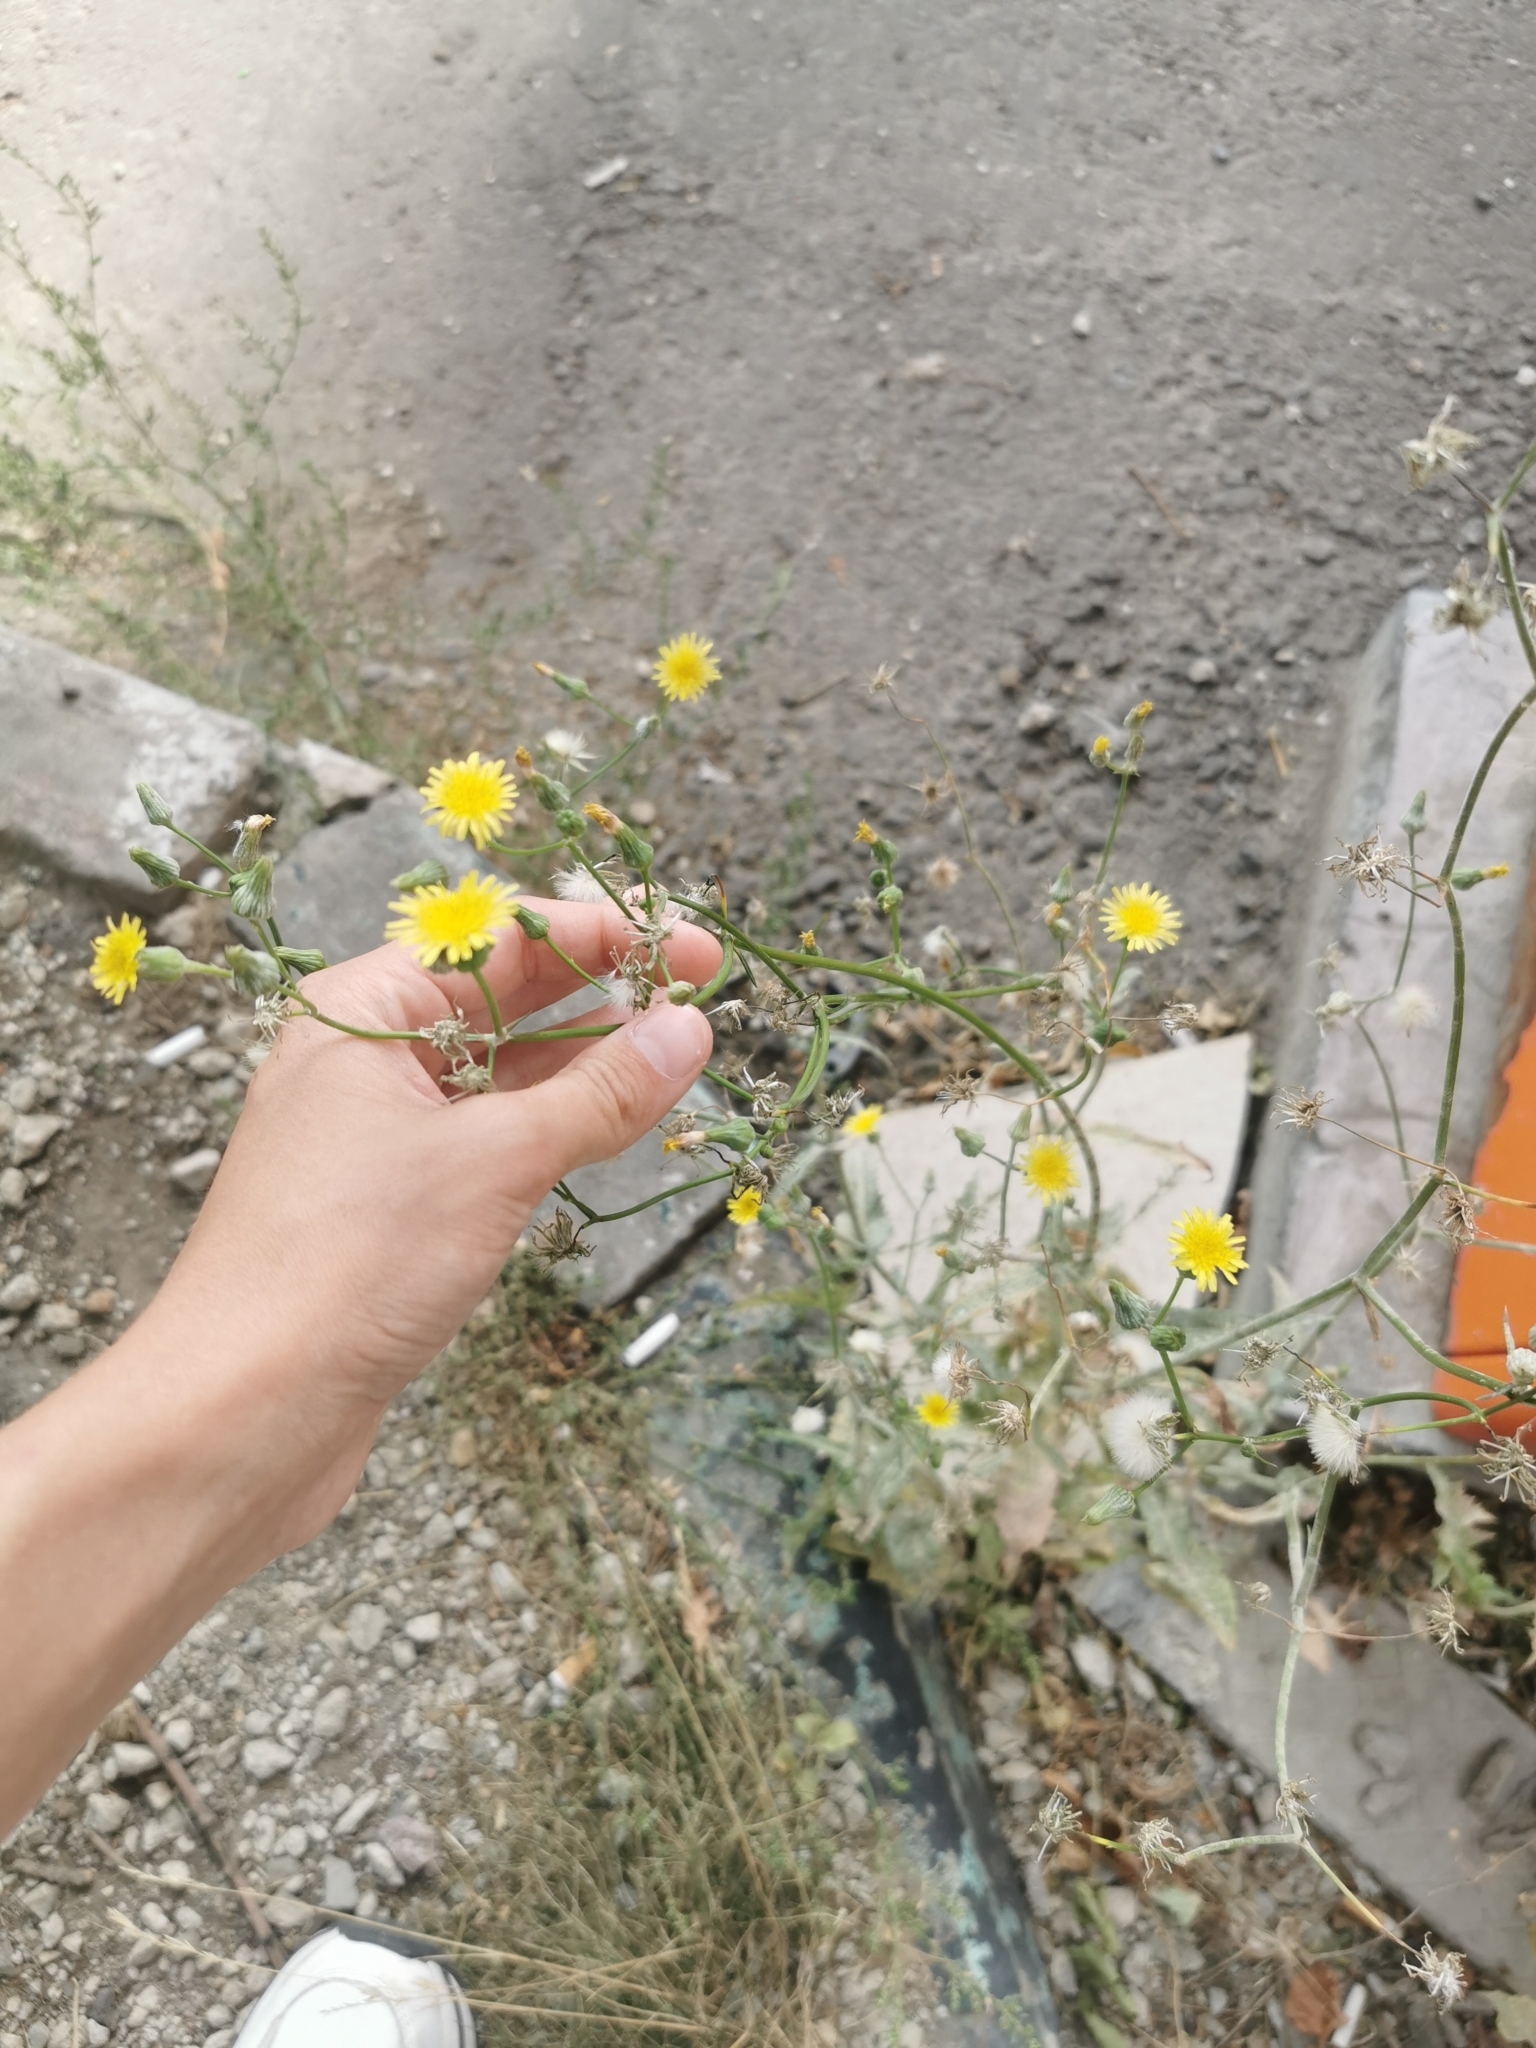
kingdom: Plantae
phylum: Tracheophyta
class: Magnoliopsida
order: Asterales
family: Asteraceae
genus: Sonchus
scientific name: Sonchus oleraceus
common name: Common sowthistle
